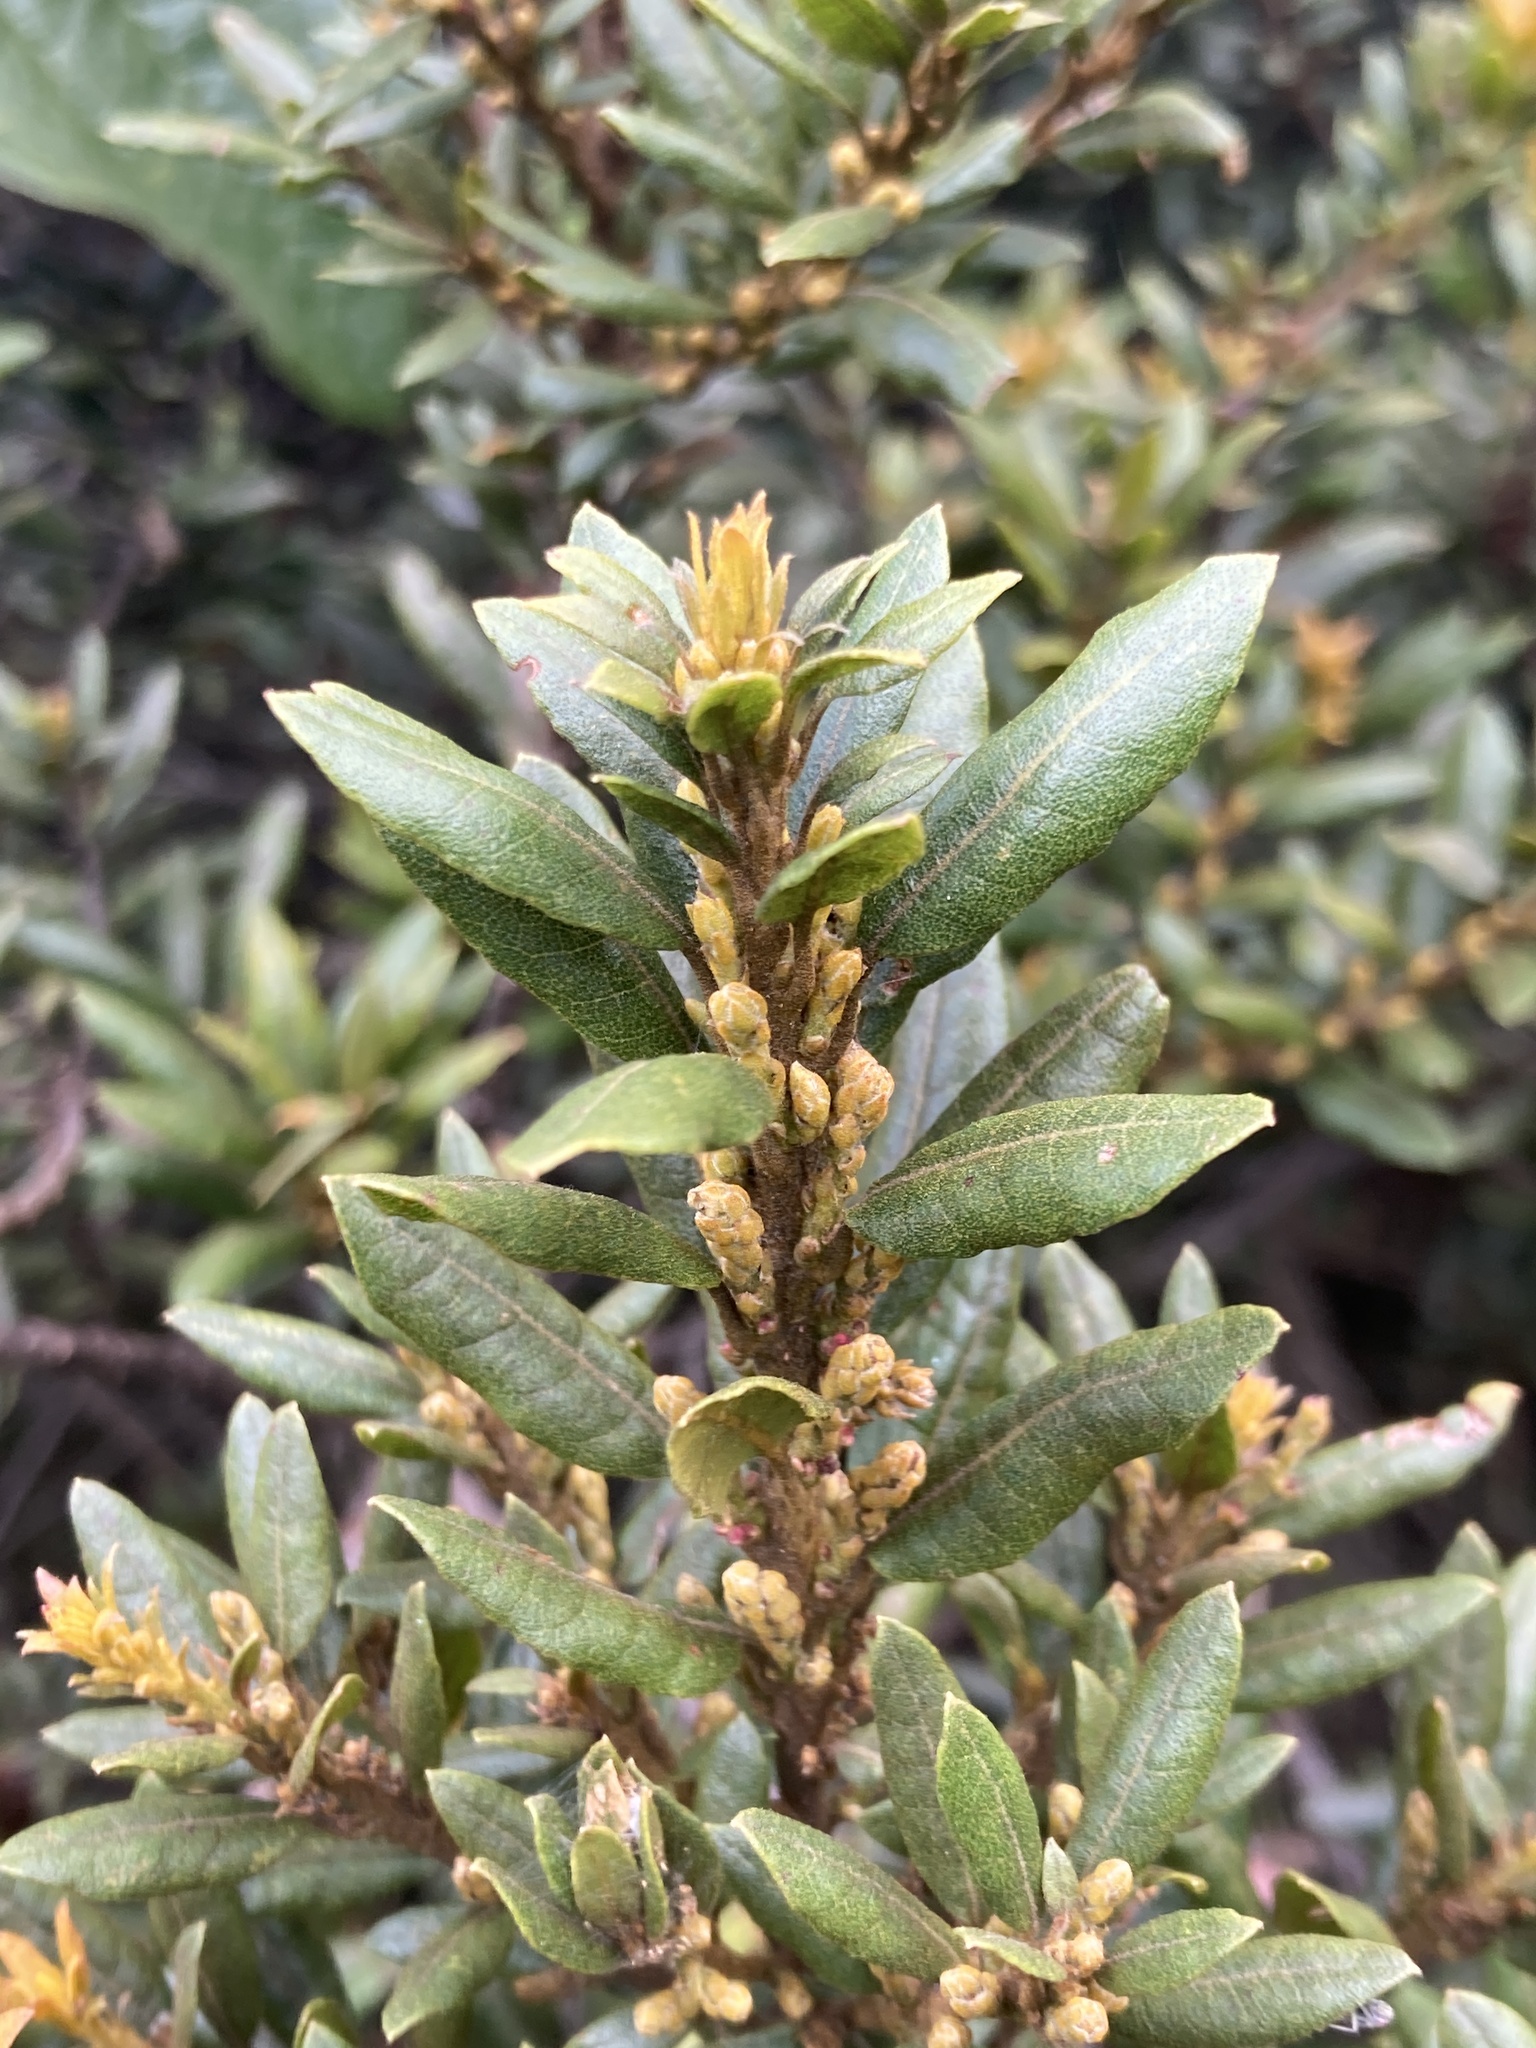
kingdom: Plantae
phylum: Tracheophyta
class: Magnoliopsida
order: Fagales
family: Myricaceae
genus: Morella
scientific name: Morella parvifolia
